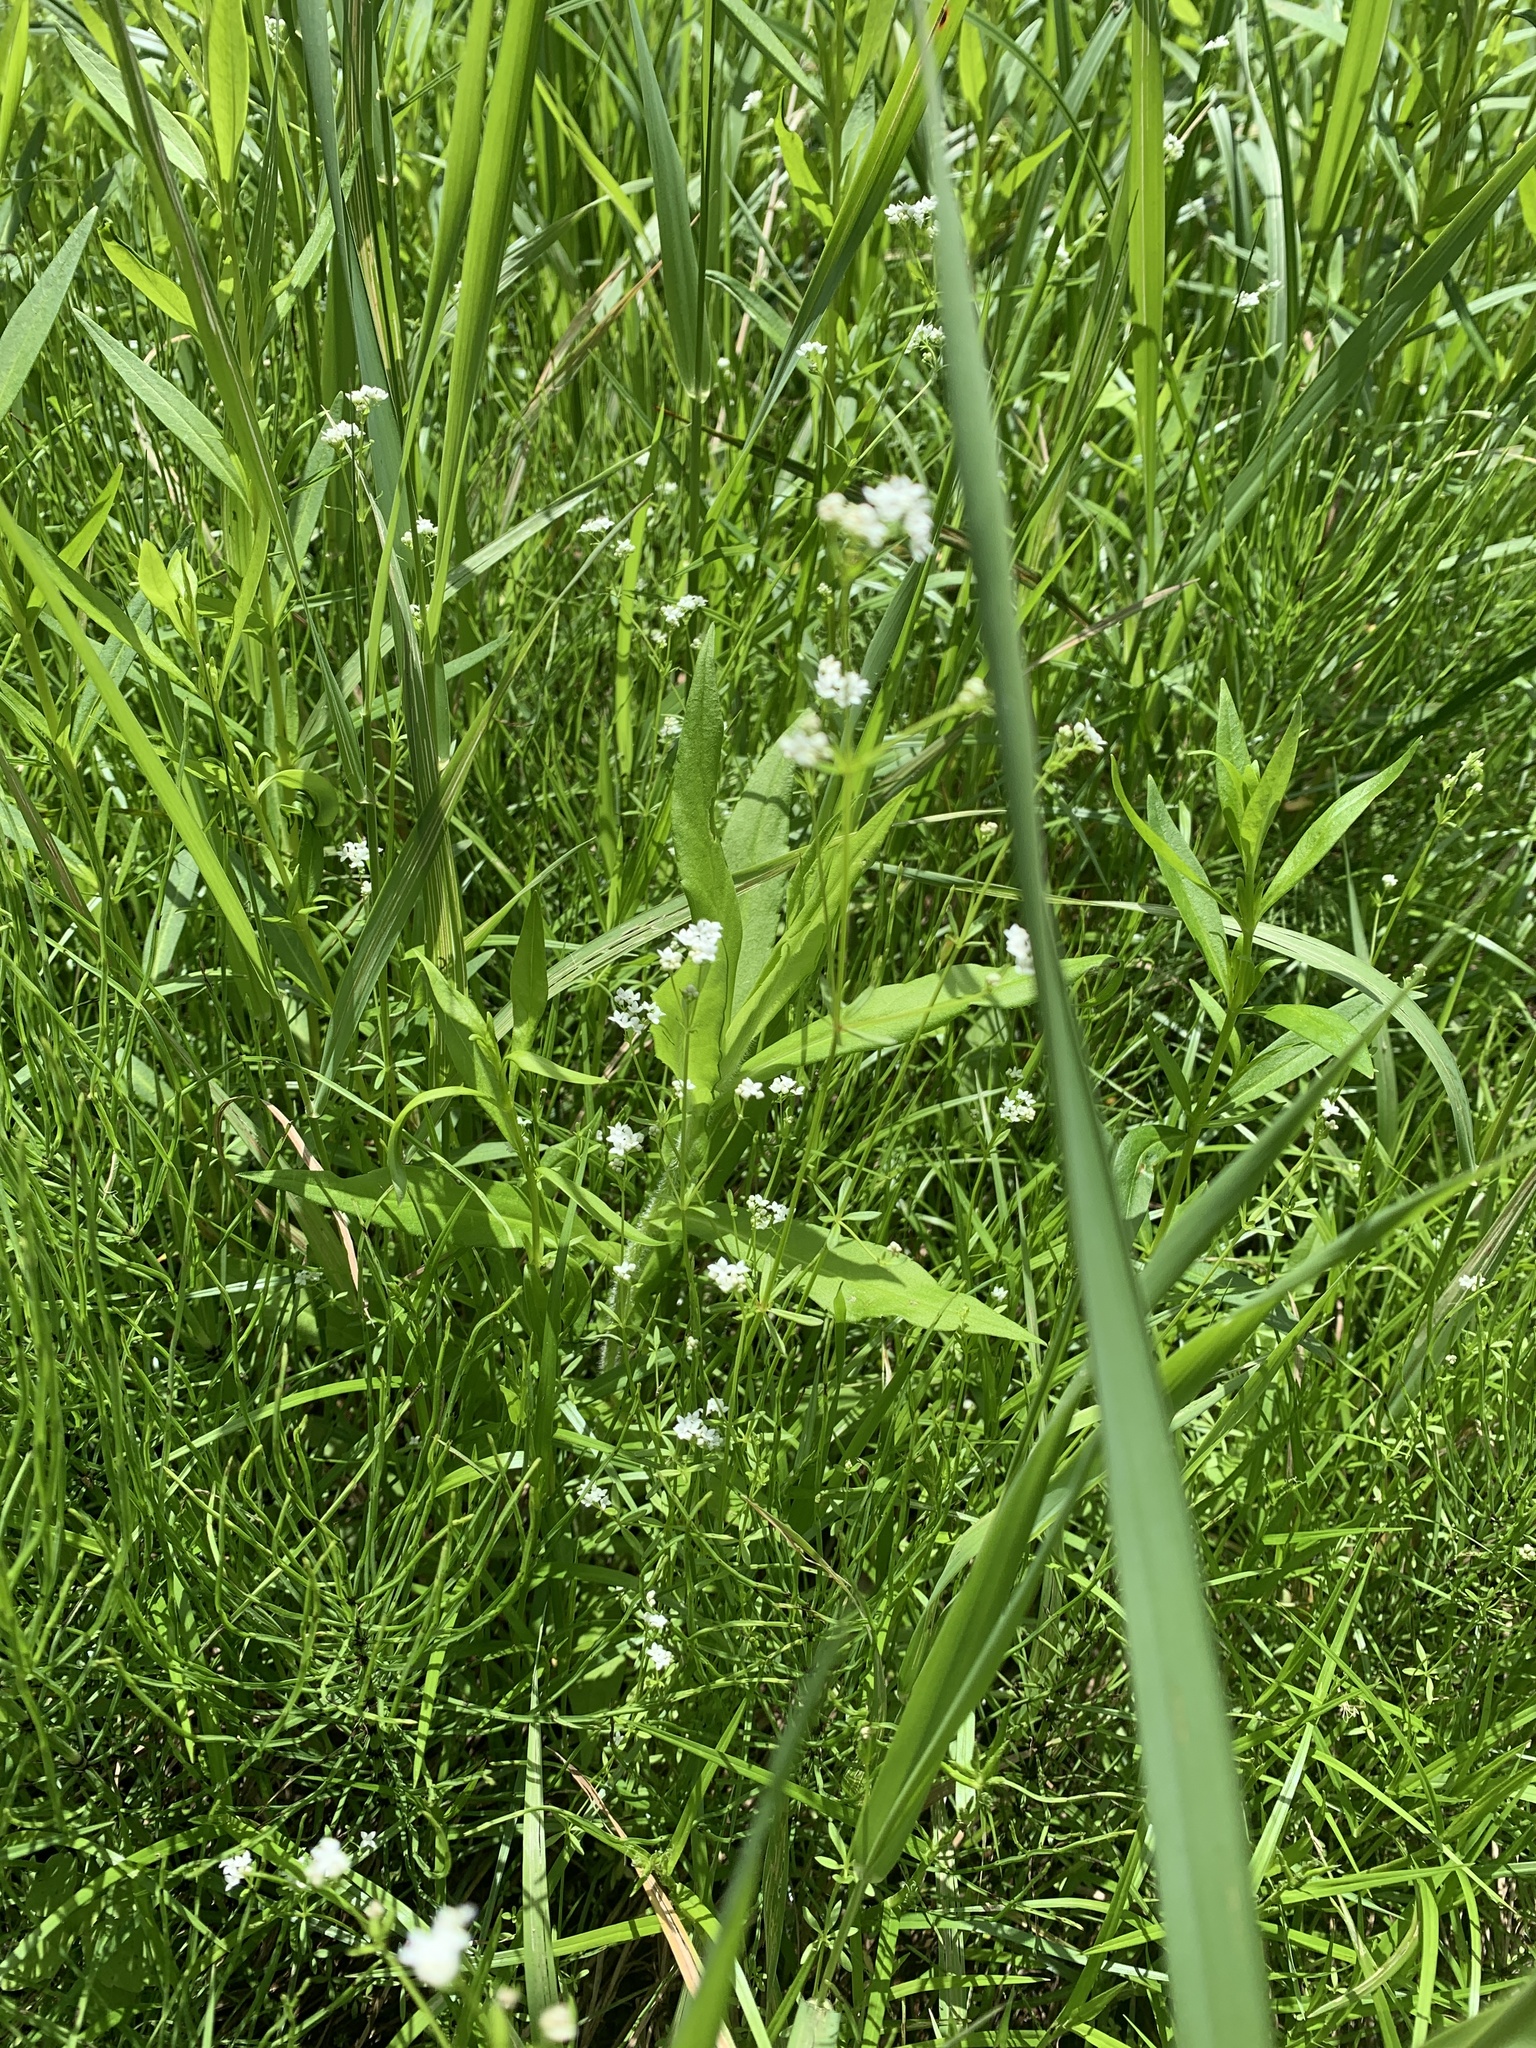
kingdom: Plantae
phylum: Tracheophyta
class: Magnoliopsida
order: Gentianales
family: Rubiaceae
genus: Galium
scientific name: Galium palustre
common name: Common marsh-bedstraw
